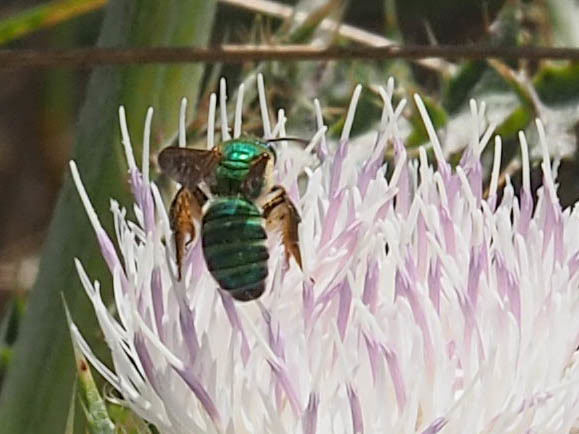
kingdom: Animalia
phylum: Arthropoda
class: Insecta
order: Hymenoptera
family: Halictidae
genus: Agapostemon
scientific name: Agapostemon splendens
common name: Brown-winged striped sweat bee
